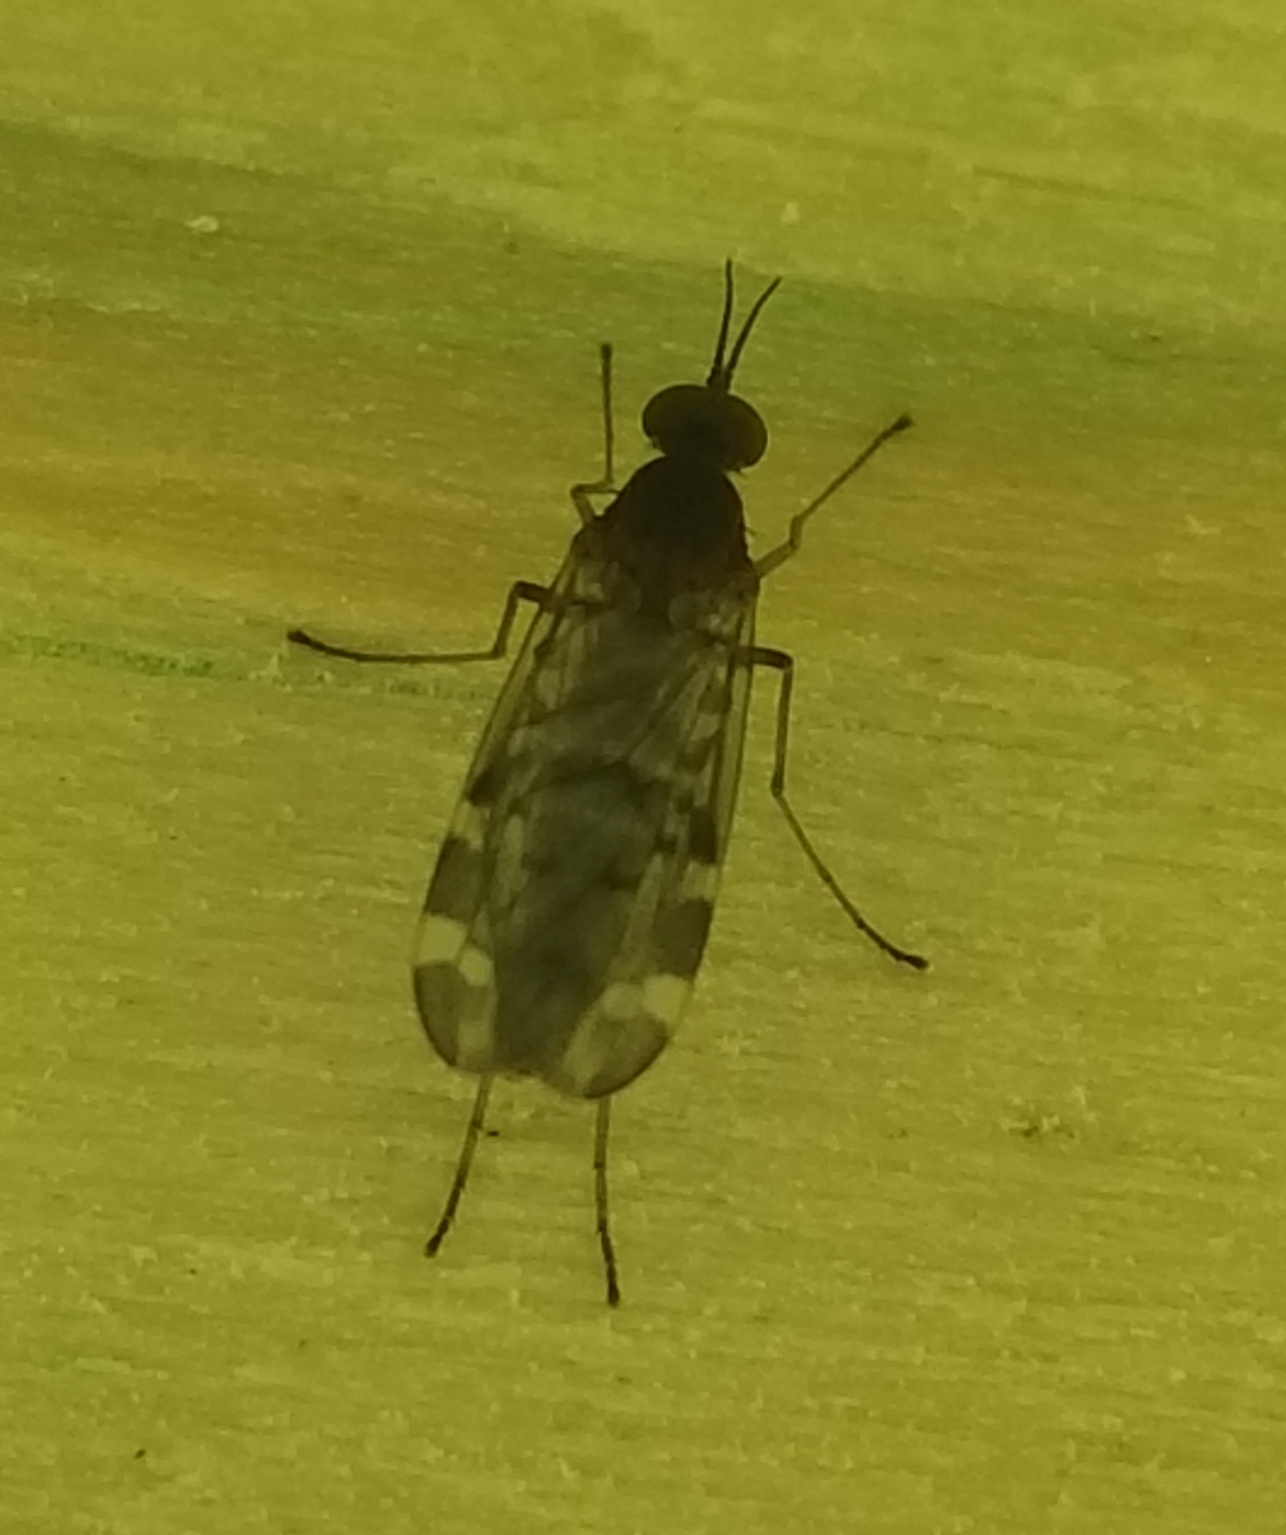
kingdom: Animalia
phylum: Arthropoda
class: Insecta
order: Diptera
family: Anisopodidae
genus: Sylvicola
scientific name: Sylvicola alternata
